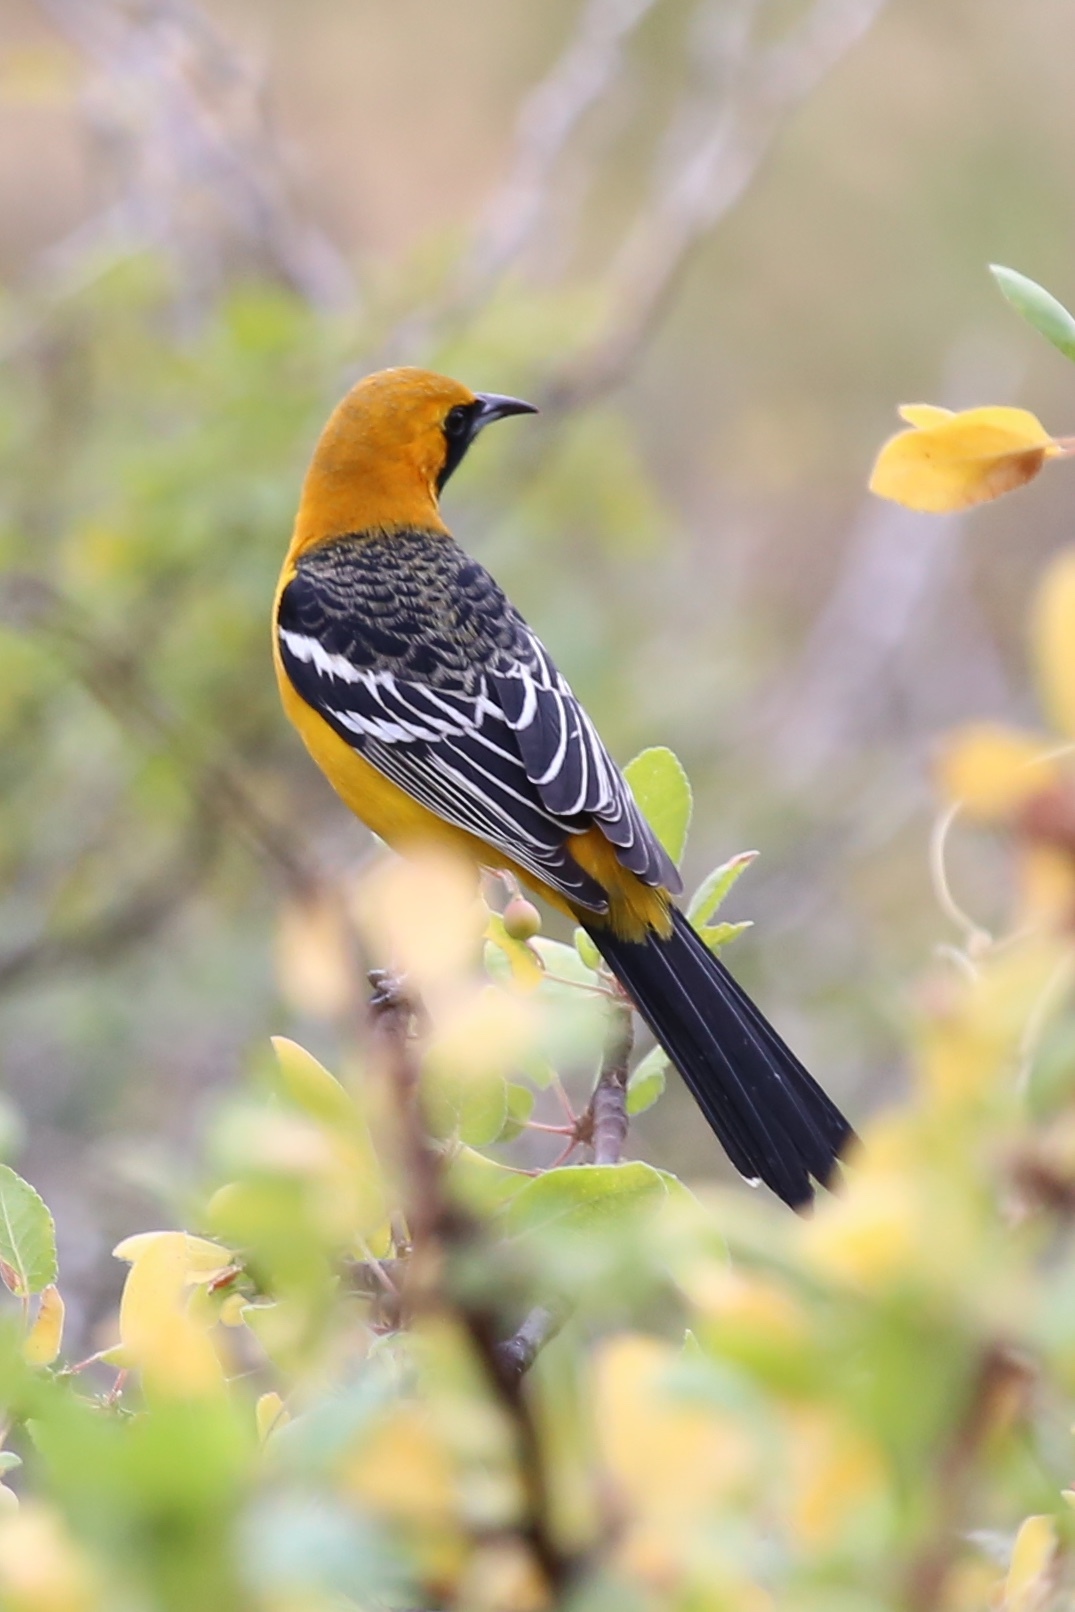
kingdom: Animalia
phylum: Chordata
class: Aves
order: Passeriformes
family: Icteridae
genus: Icterus
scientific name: Icterus cucullatus
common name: Hooded oriole
